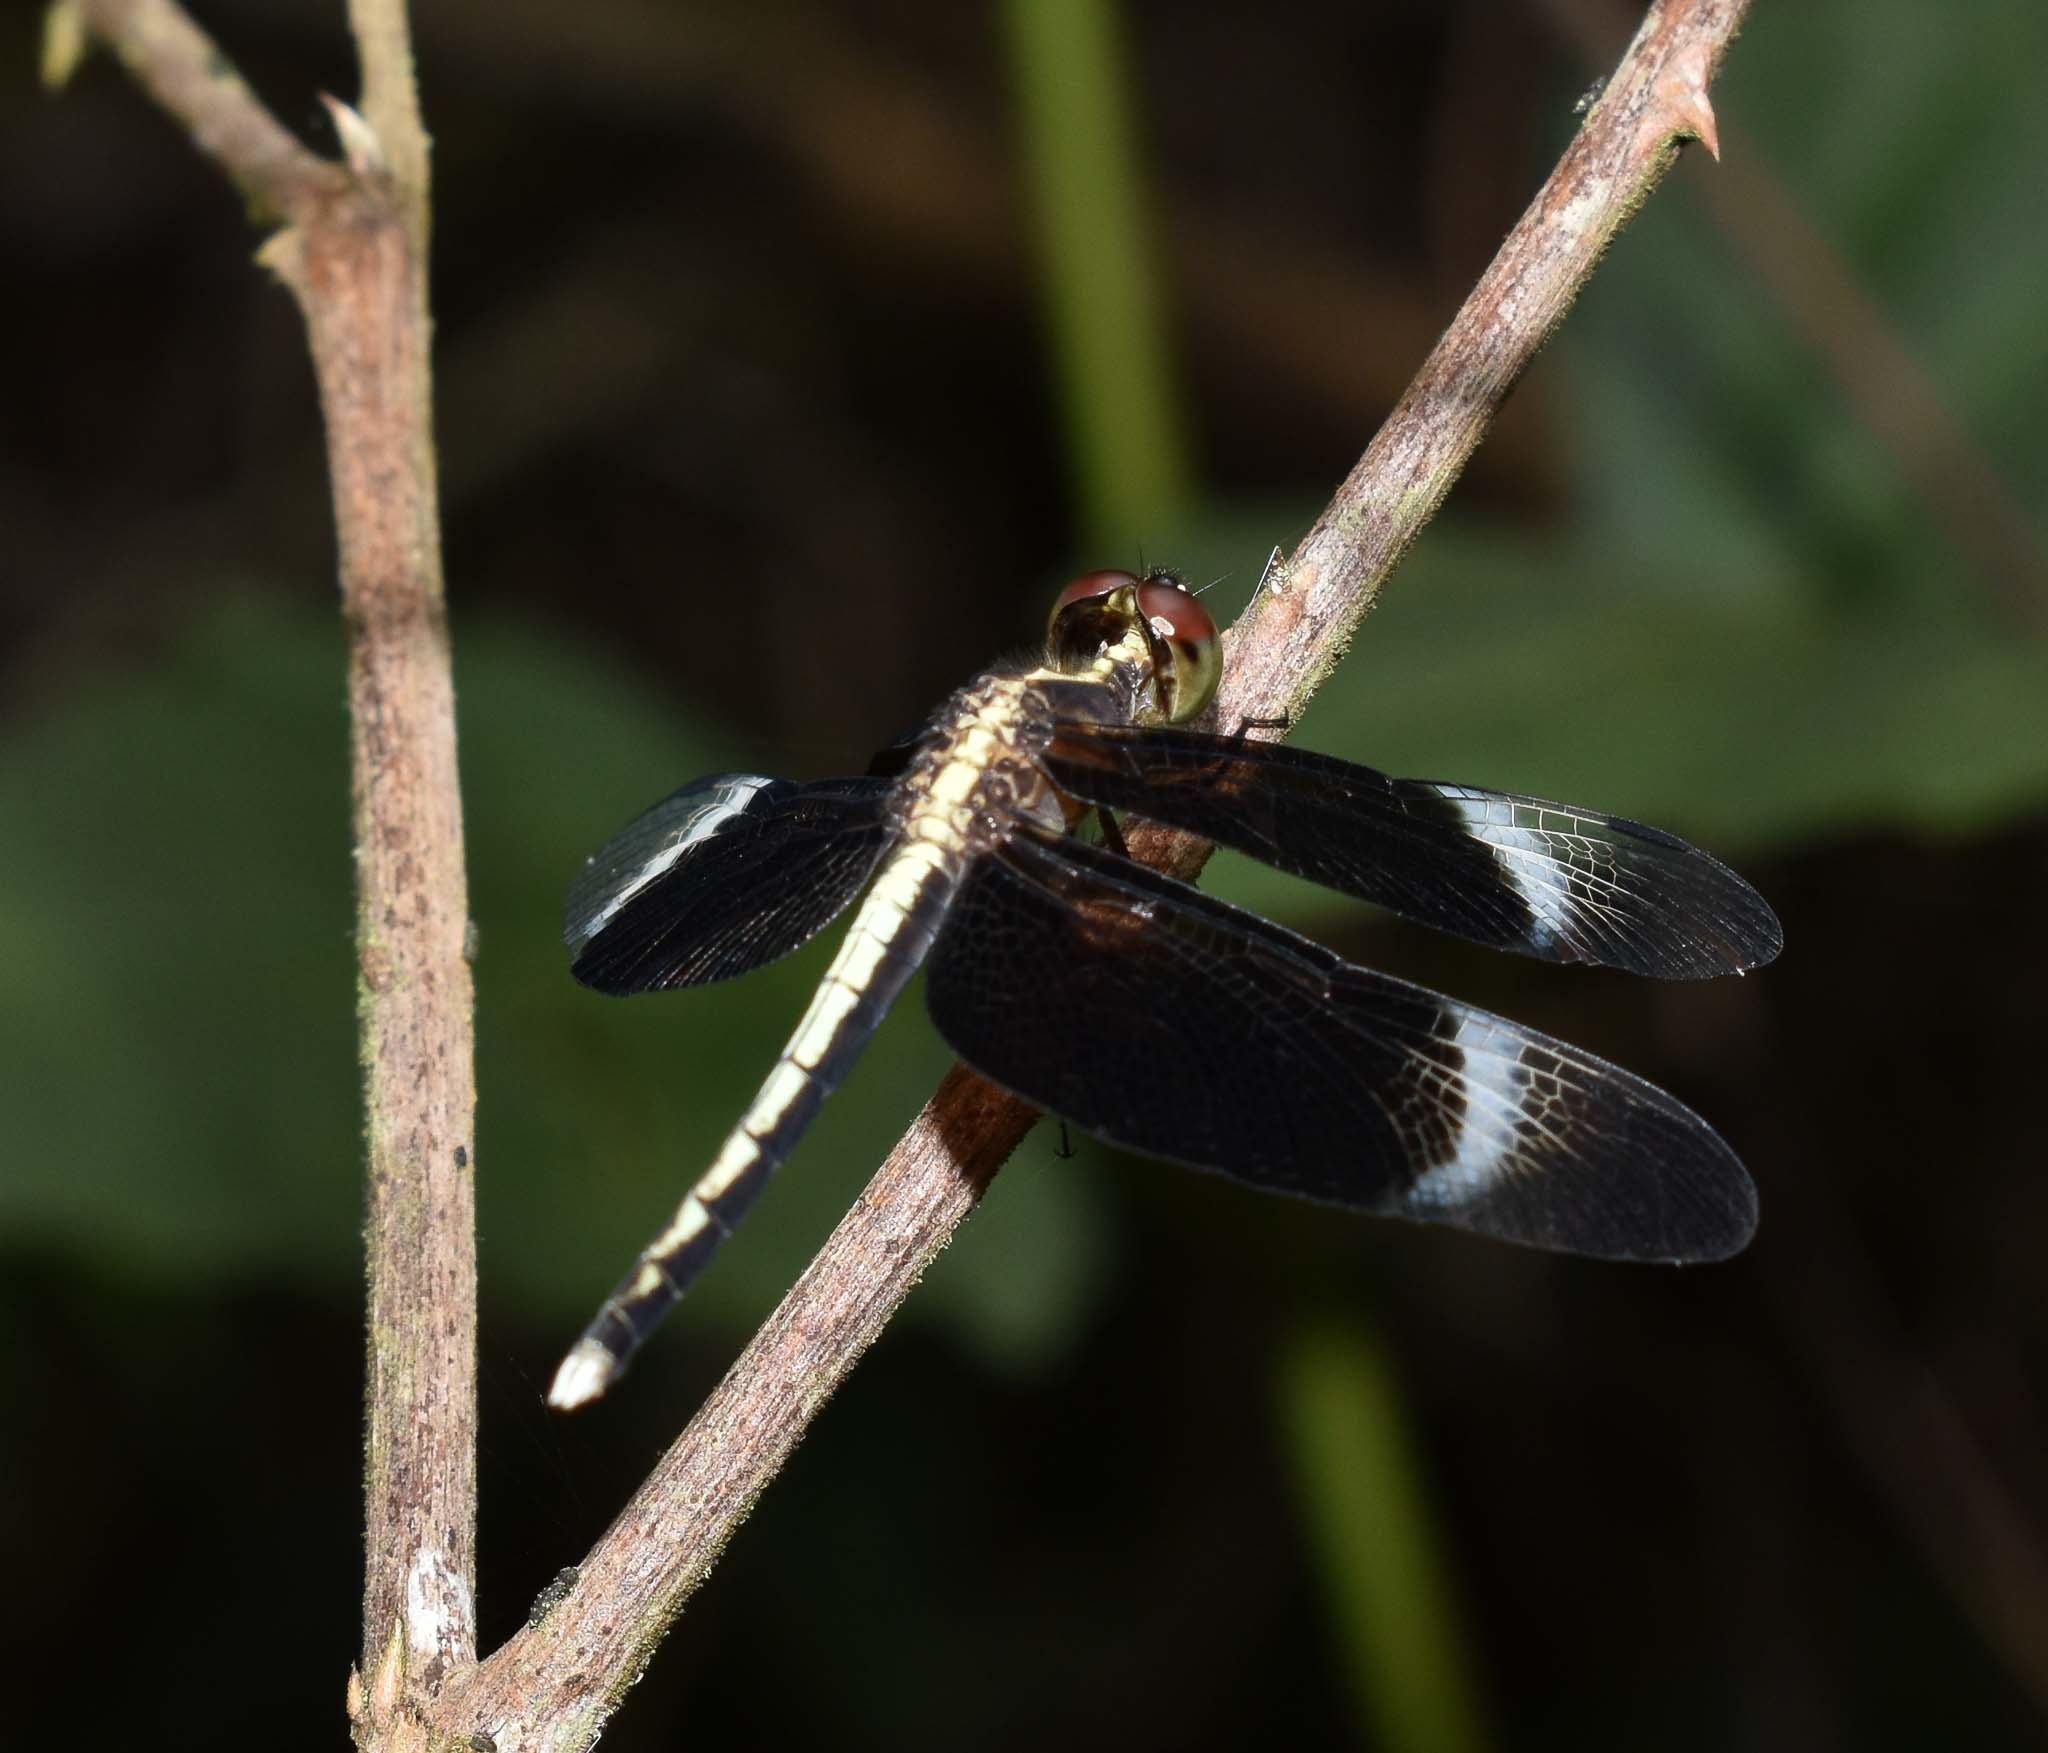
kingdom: Animalia
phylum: Arthropoda
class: Insecta
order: Odonata
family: Libellulidae
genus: Neurothemis
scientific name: Neurothemis tullia
